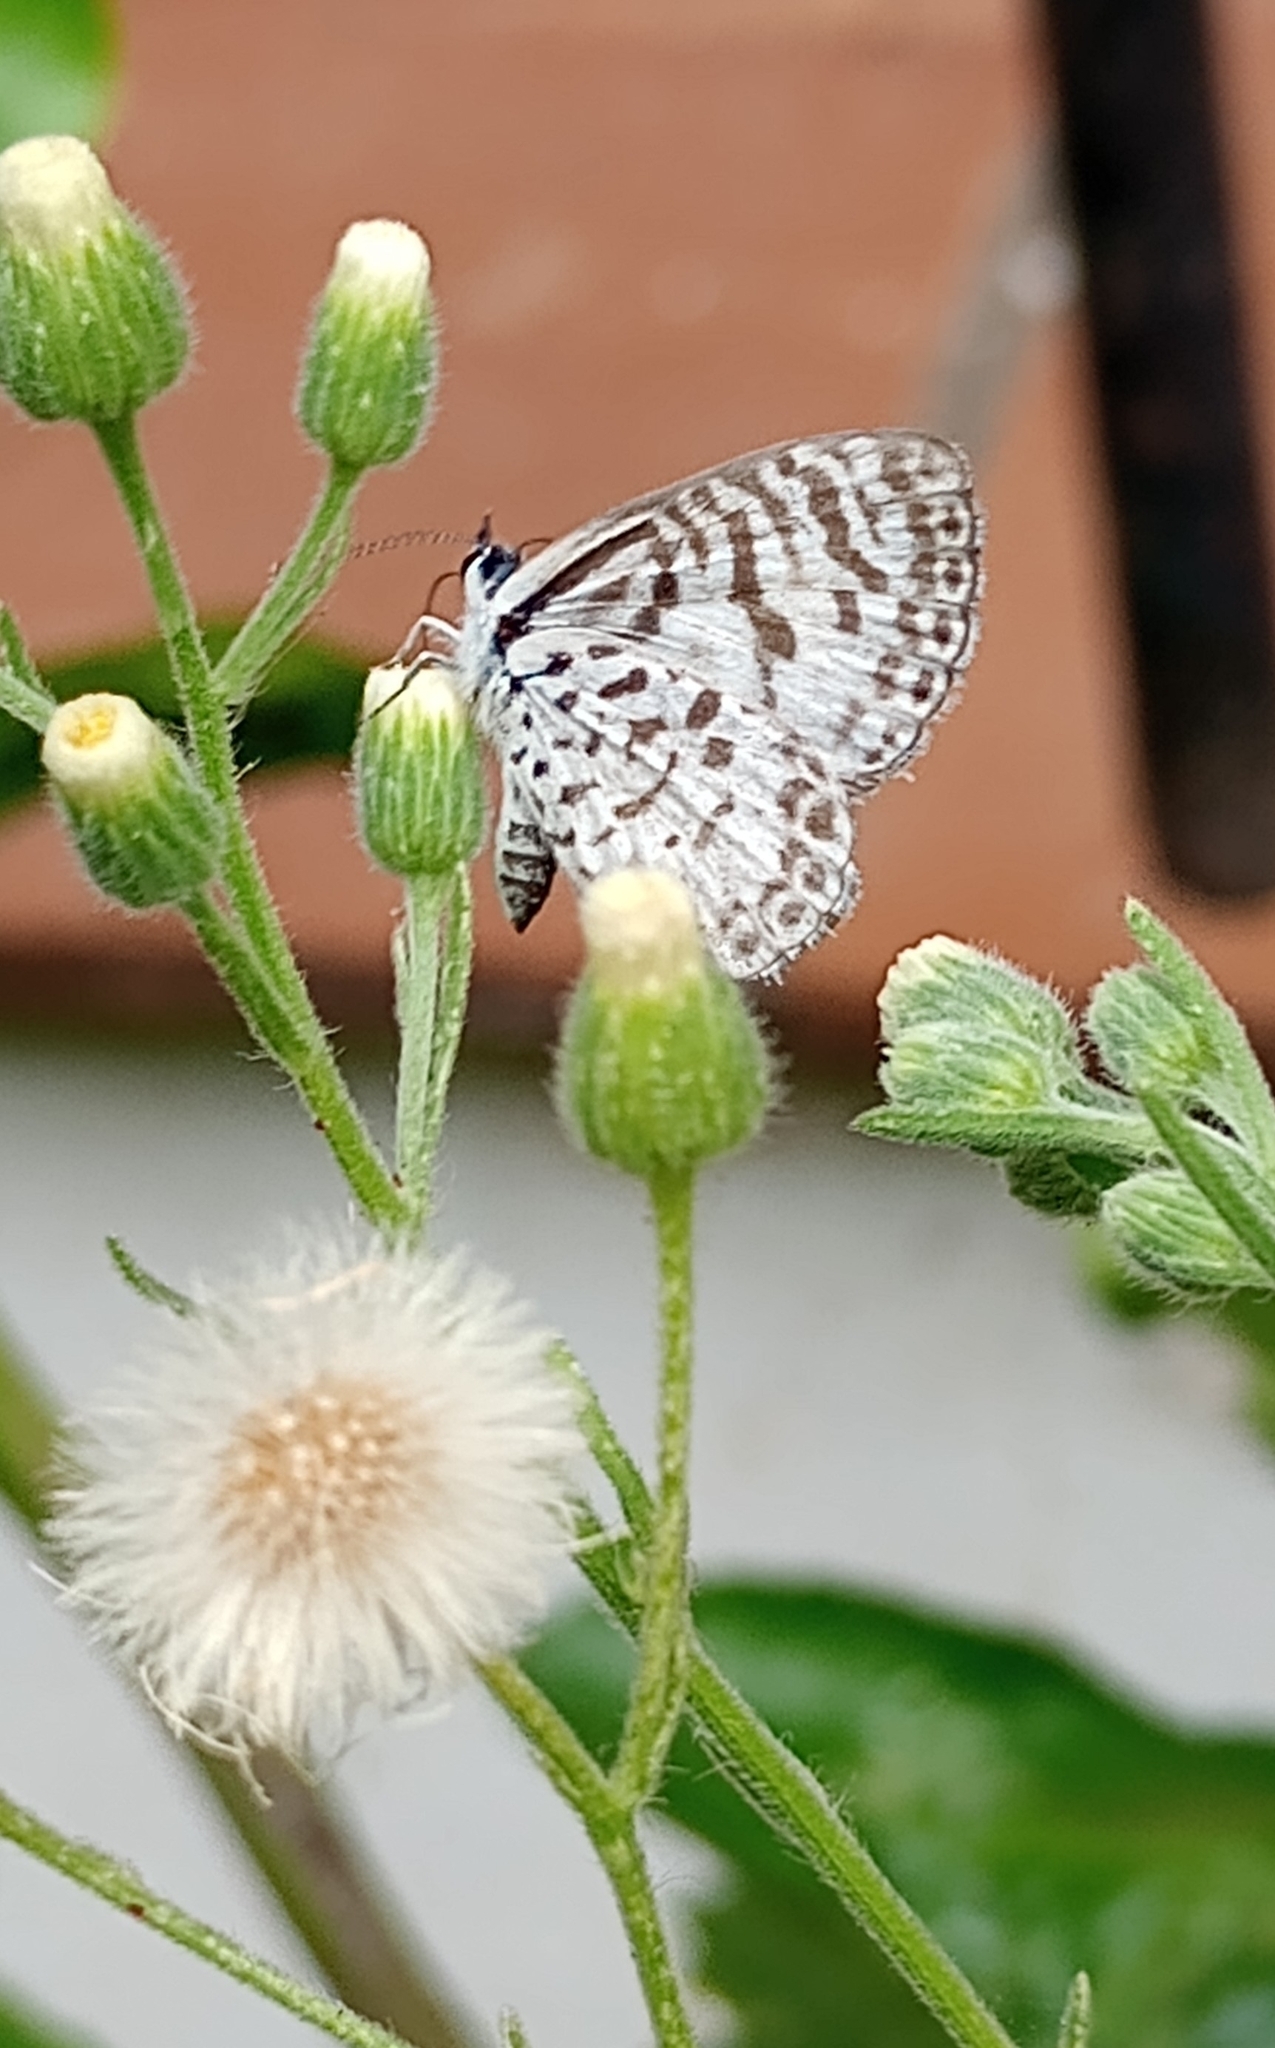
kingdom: Animalia
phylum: Arthropoda
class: Insecta
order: Lepidoptera
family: Lycaenidae
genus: Leptotes
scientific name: Leptotes cassius
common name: Cassius blue
